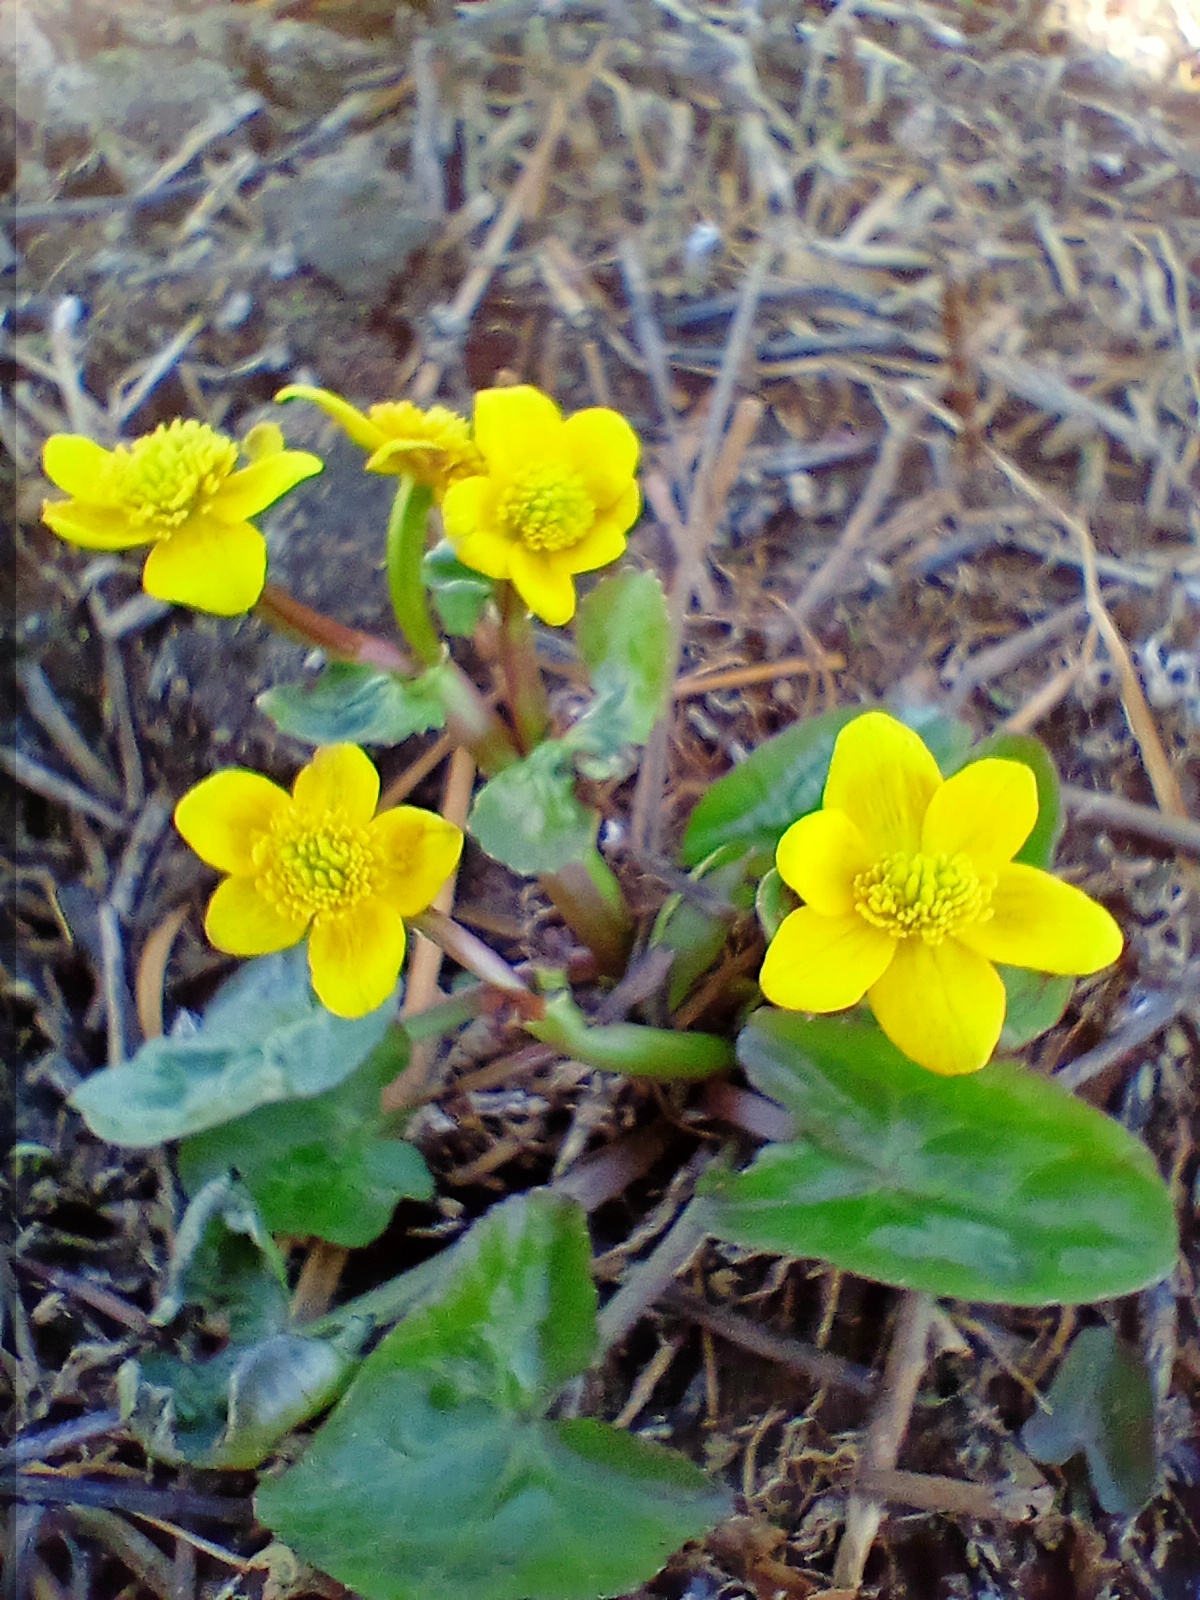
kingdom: Plantae
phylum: Tracheophyta
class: Magnoliopsida
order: Ranunculales
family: Ranunculaceae
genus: Caltha
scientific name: Caltha palustris
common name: Marsh marigold
